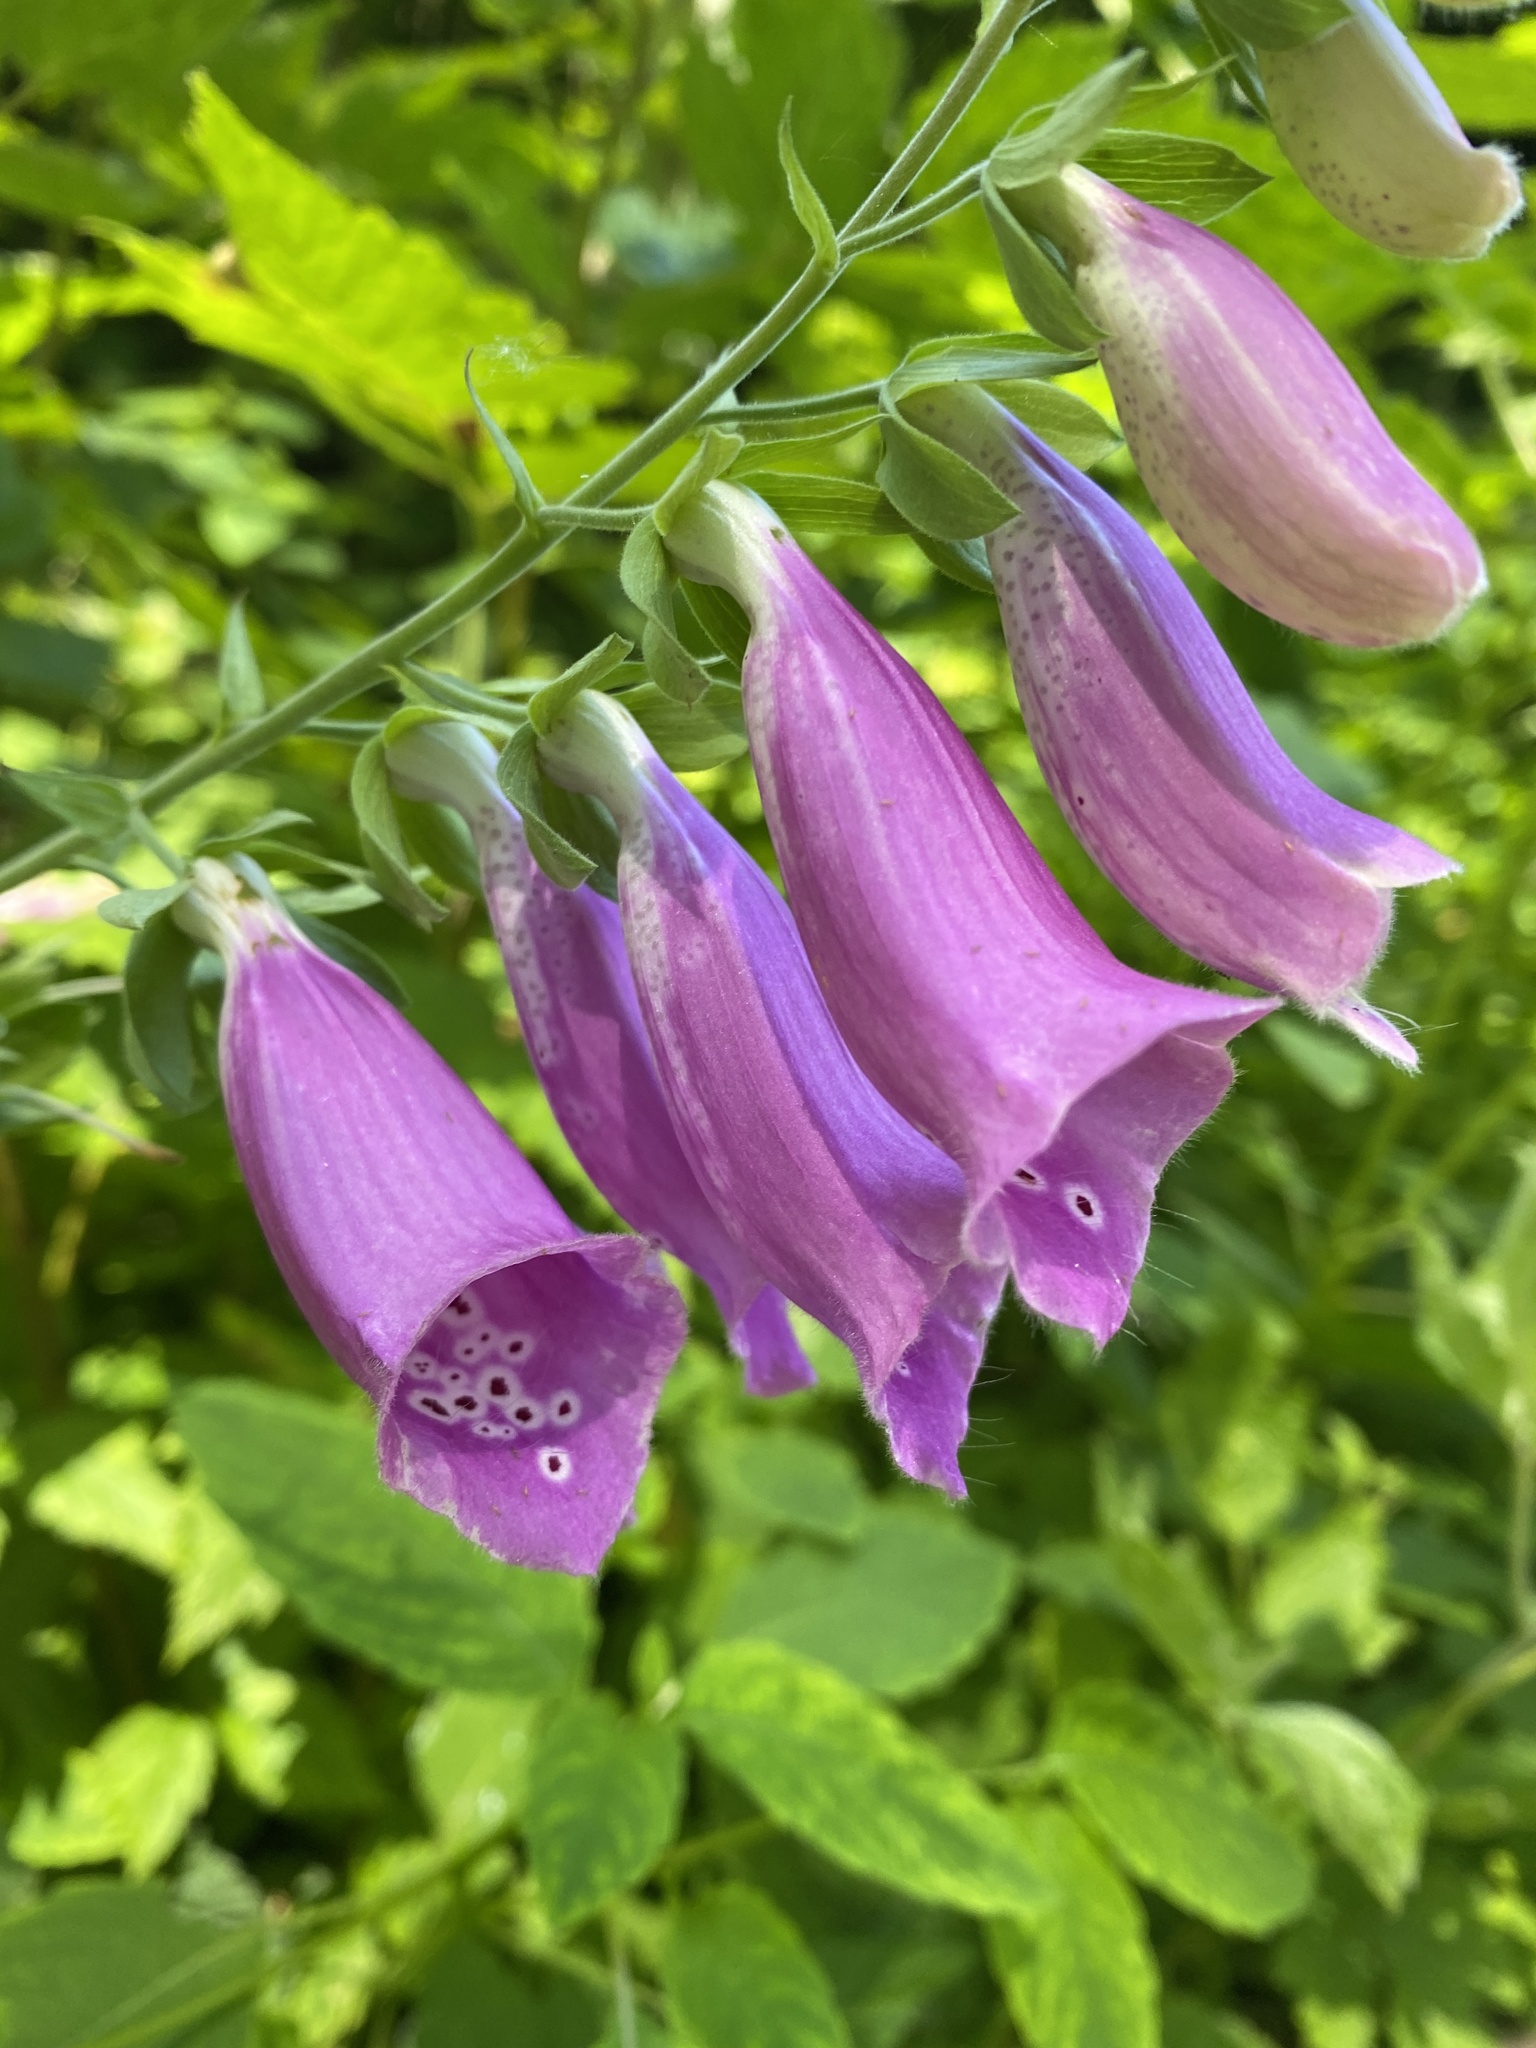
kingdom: Plantae
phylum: Tracheophyta
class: Magnoliopsida
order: Lamiales
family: Plantaginaceae
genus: Digitalis
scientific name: Digitalis purpurea
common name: Foxglove
